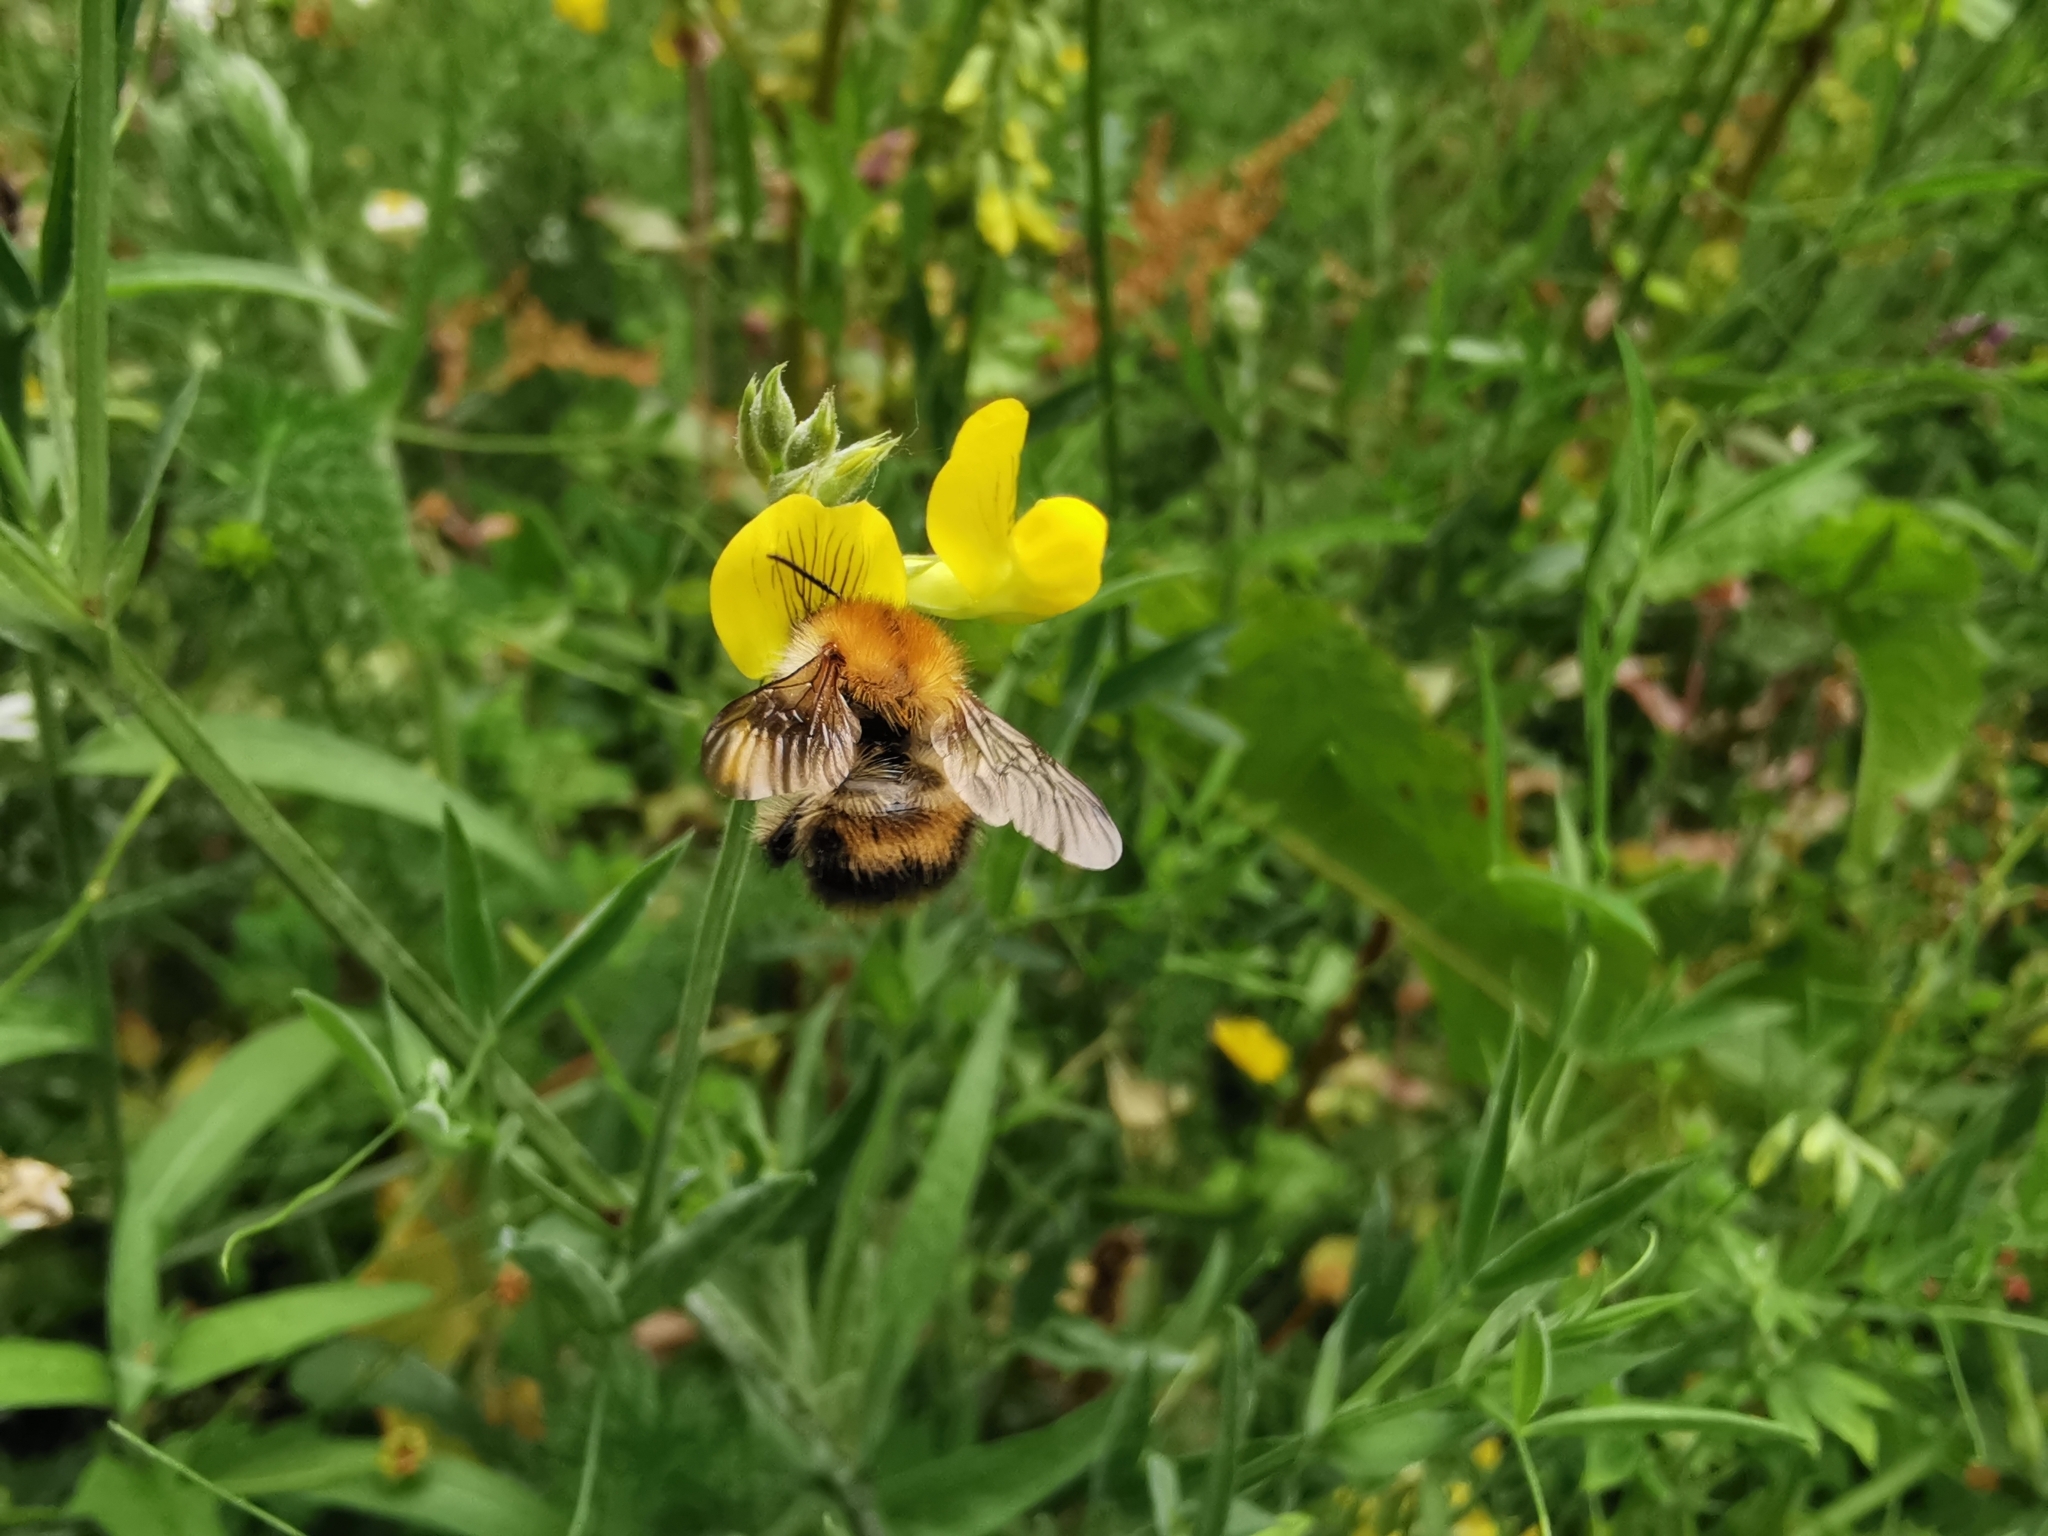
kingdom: Animalia
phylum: Arthropoda
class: Insecta
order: Hymenoptera
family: Apidae
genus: Bombus
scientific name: Bombus pascuorum
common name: Common carder bee
